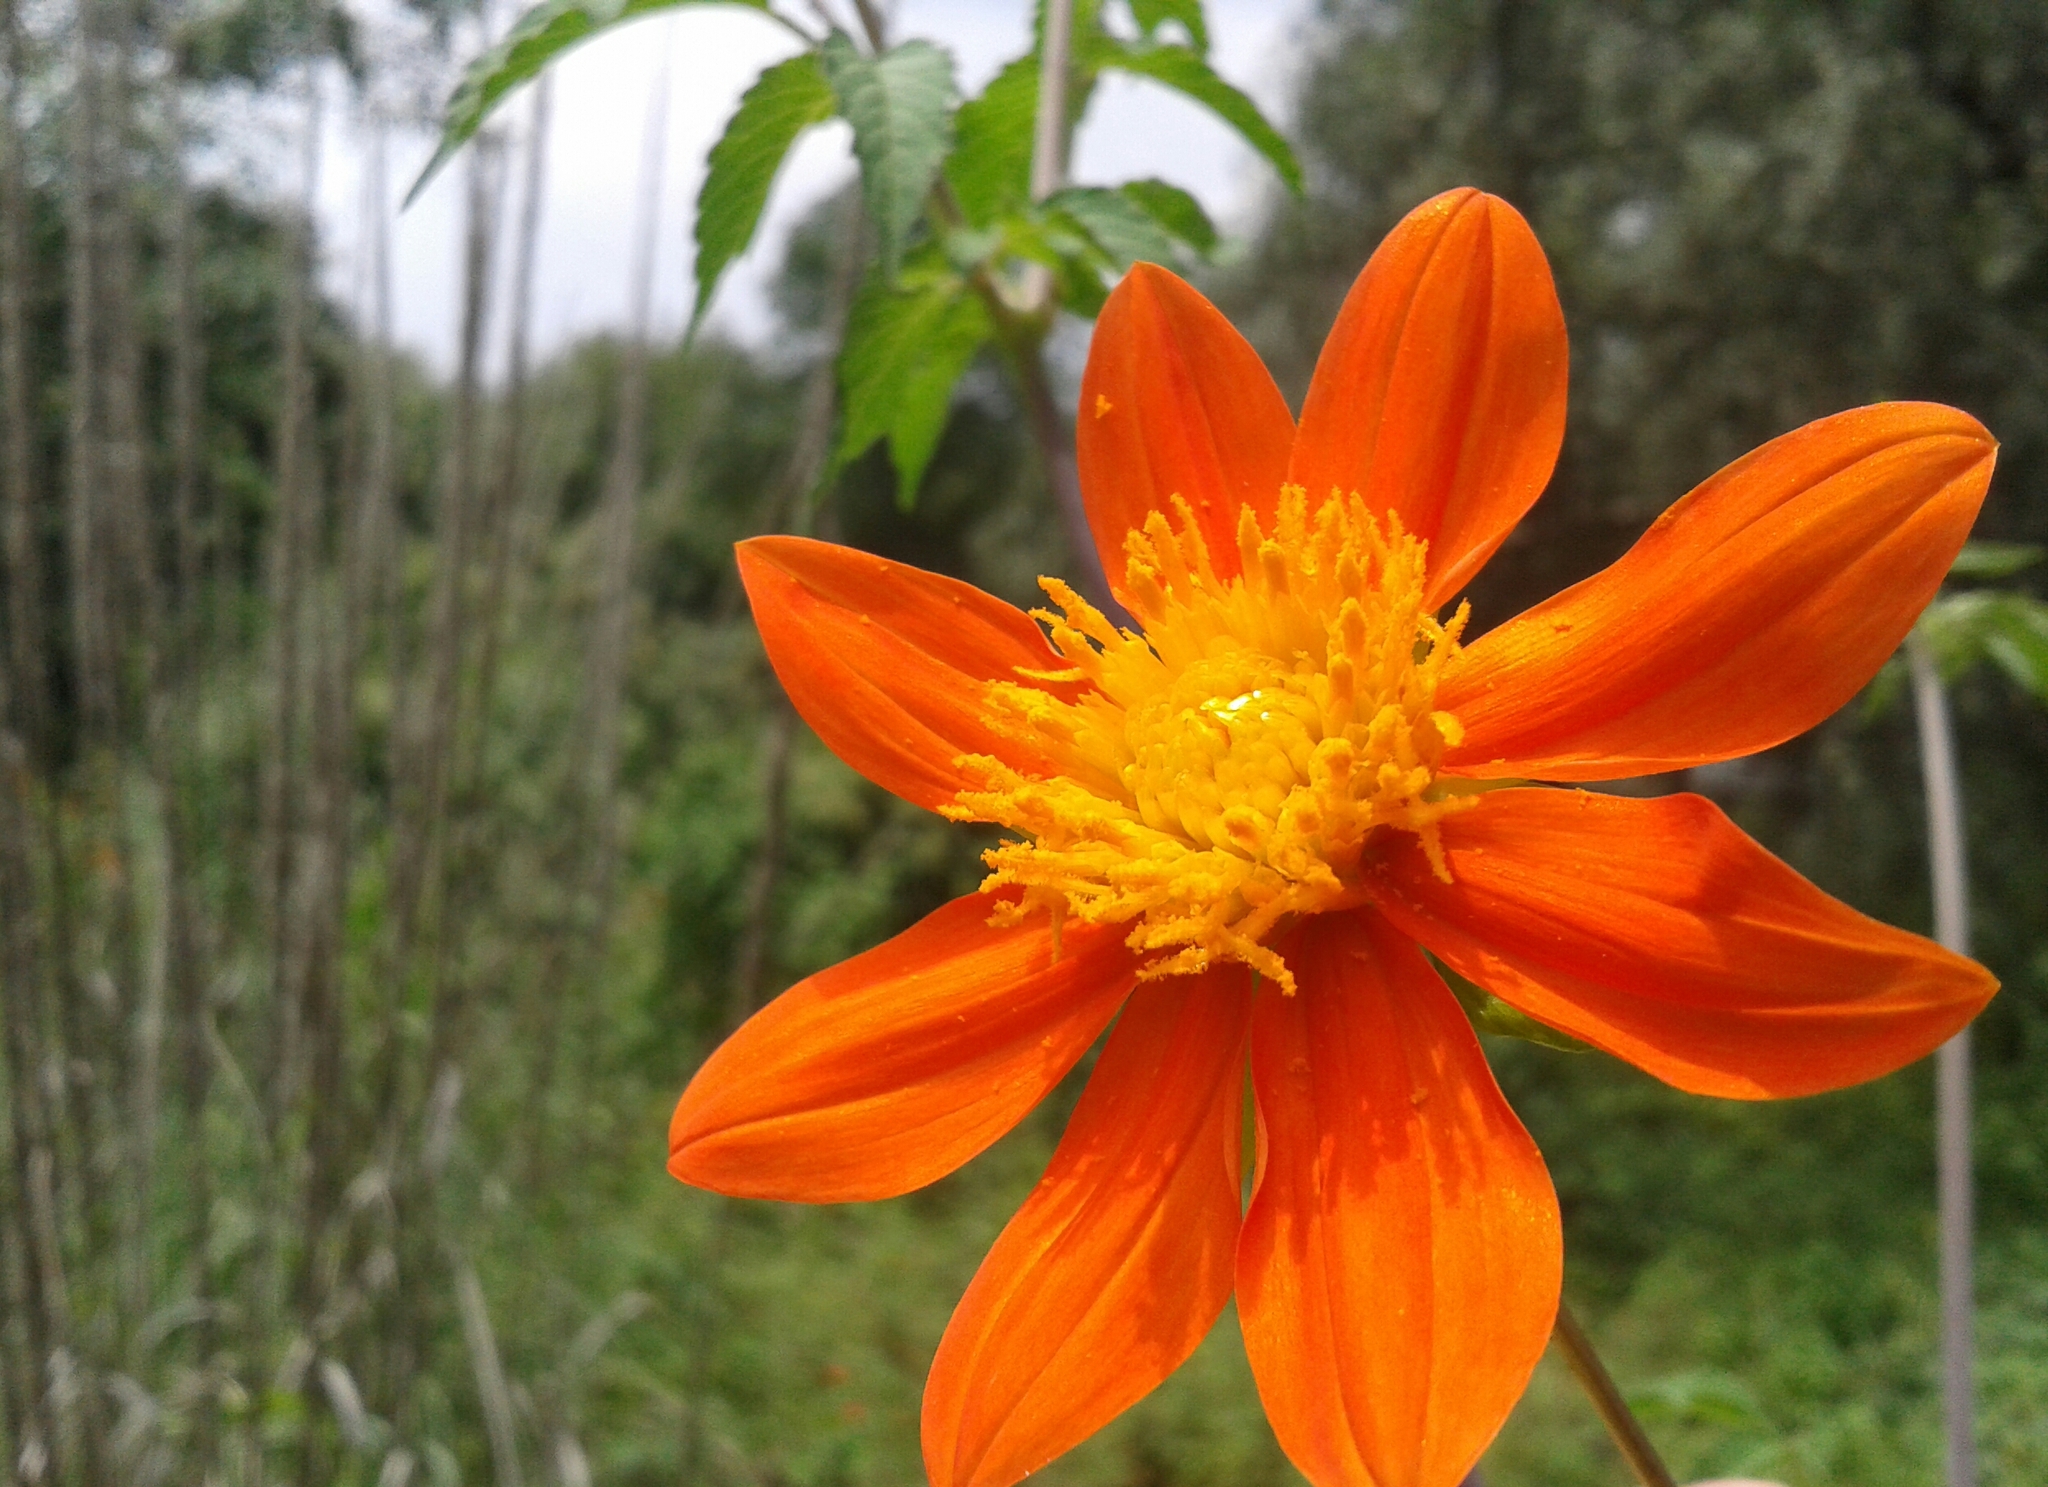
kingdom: Plantae
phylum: Tracheophyta
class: Magnoliopsida
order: Asterales
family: Asteraceae
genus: Dahlia
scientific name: Dahlia coccinea
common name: Red dahlia
